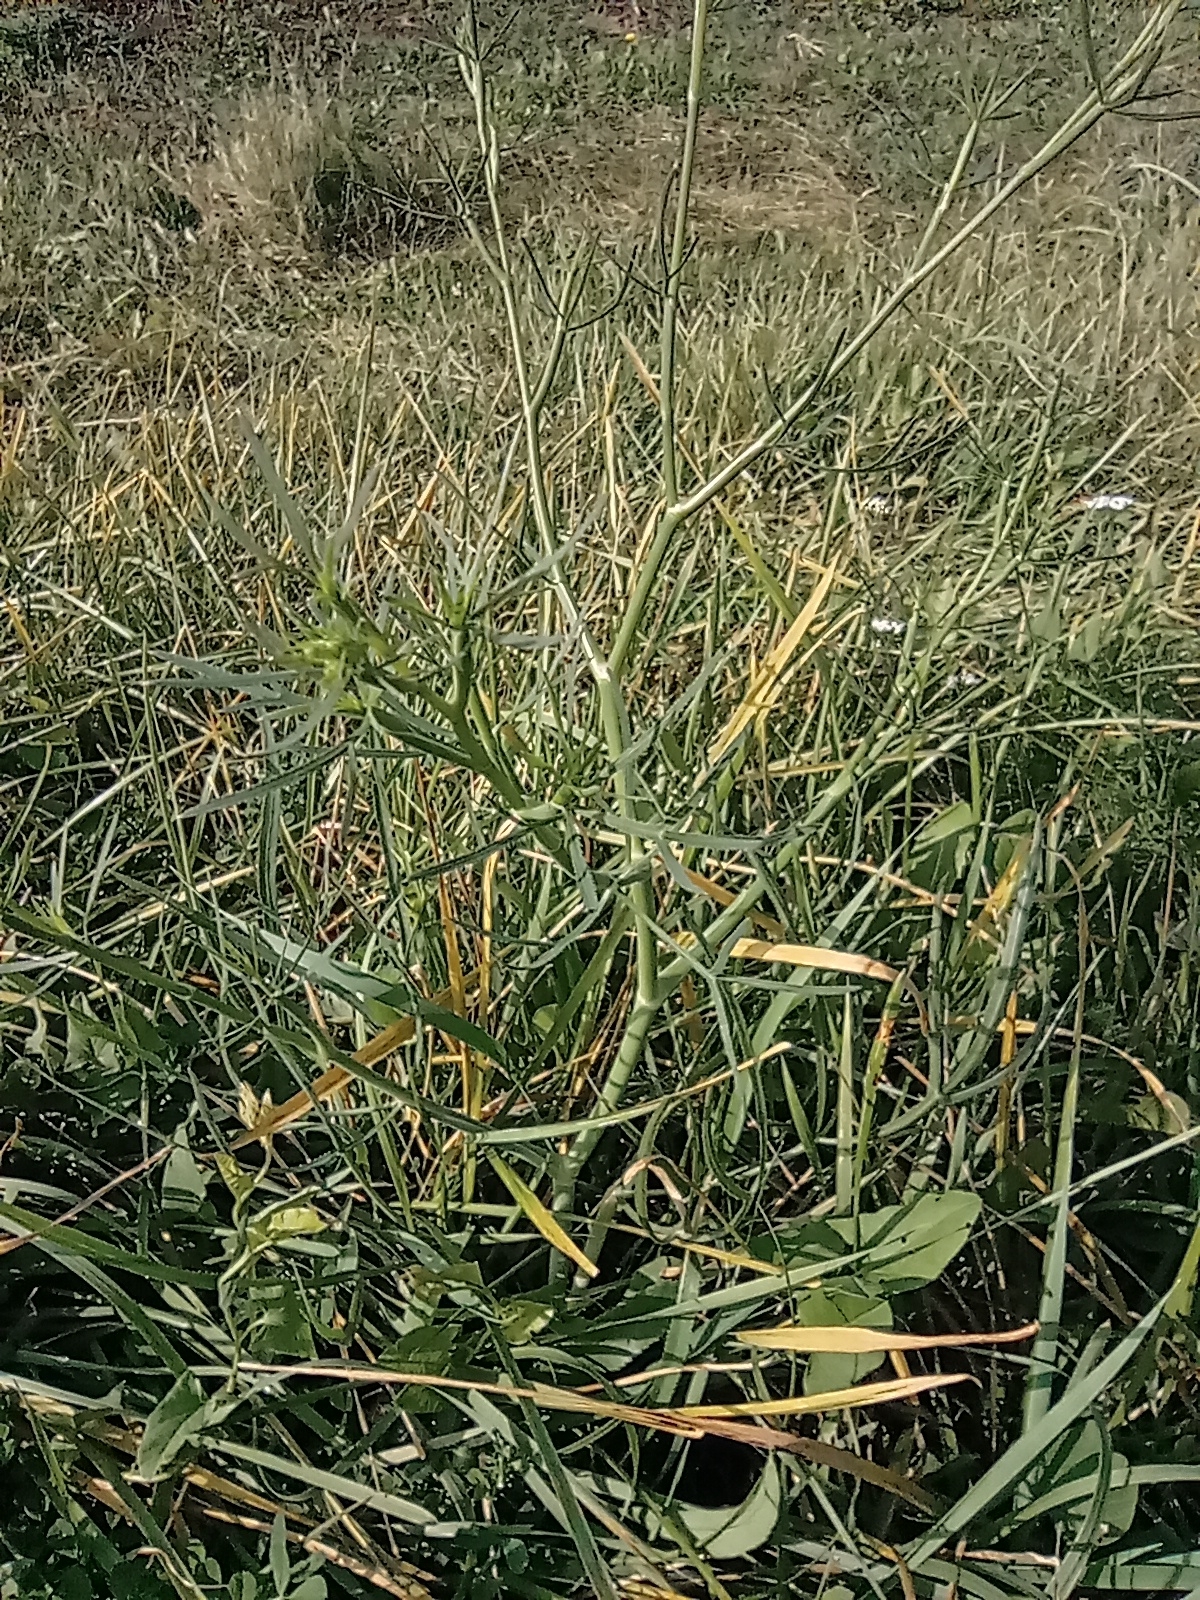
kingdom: Plantae
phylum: Tracheophyta
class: Magnoliopsida
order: Apiales
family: Apiaceae
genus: Falcaria
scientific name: Falcaria vulgaris
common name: Longleaf
